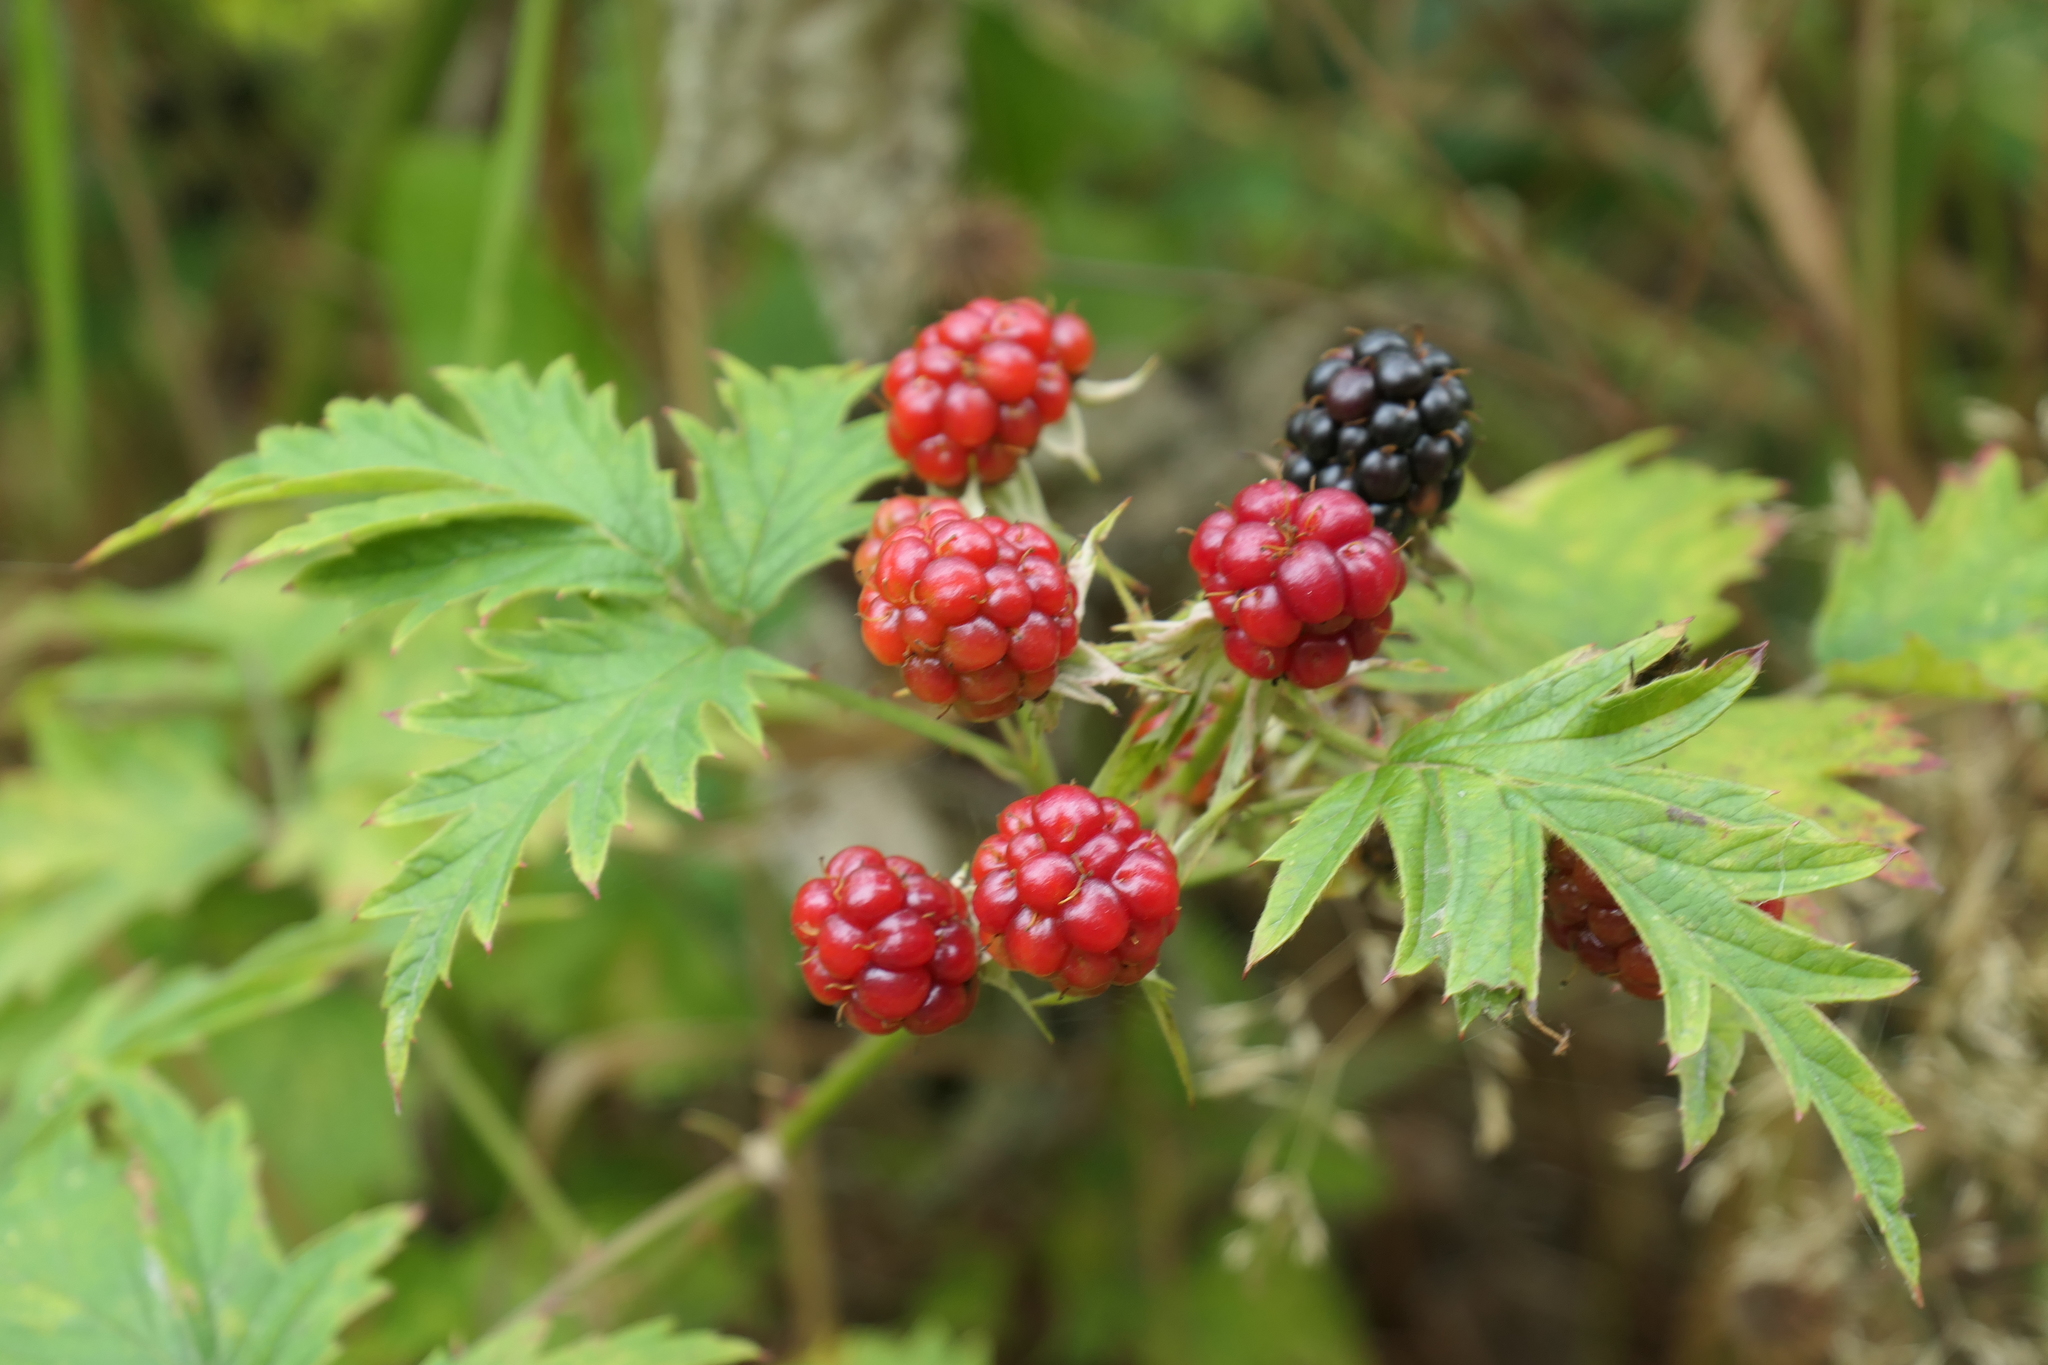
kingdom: Plantae
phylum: Tracheophyta
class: Magnoliopsida
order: Rosales
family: Rosaceae
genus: Rubus
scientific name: Rubus laciniatus
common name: Evergreen blackberry
